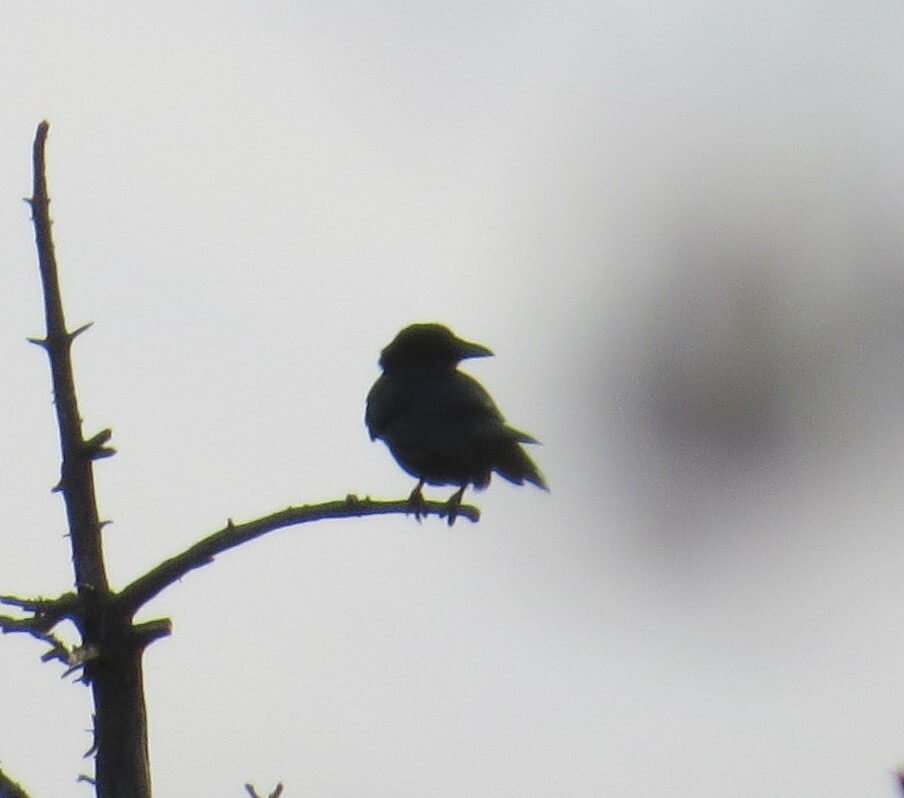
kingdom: Animalia
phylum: Chordata
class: Aves
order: Passeriformes
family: Corvidae
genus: Corvus
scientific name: Corvus brachyrhynchos
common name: American crow
